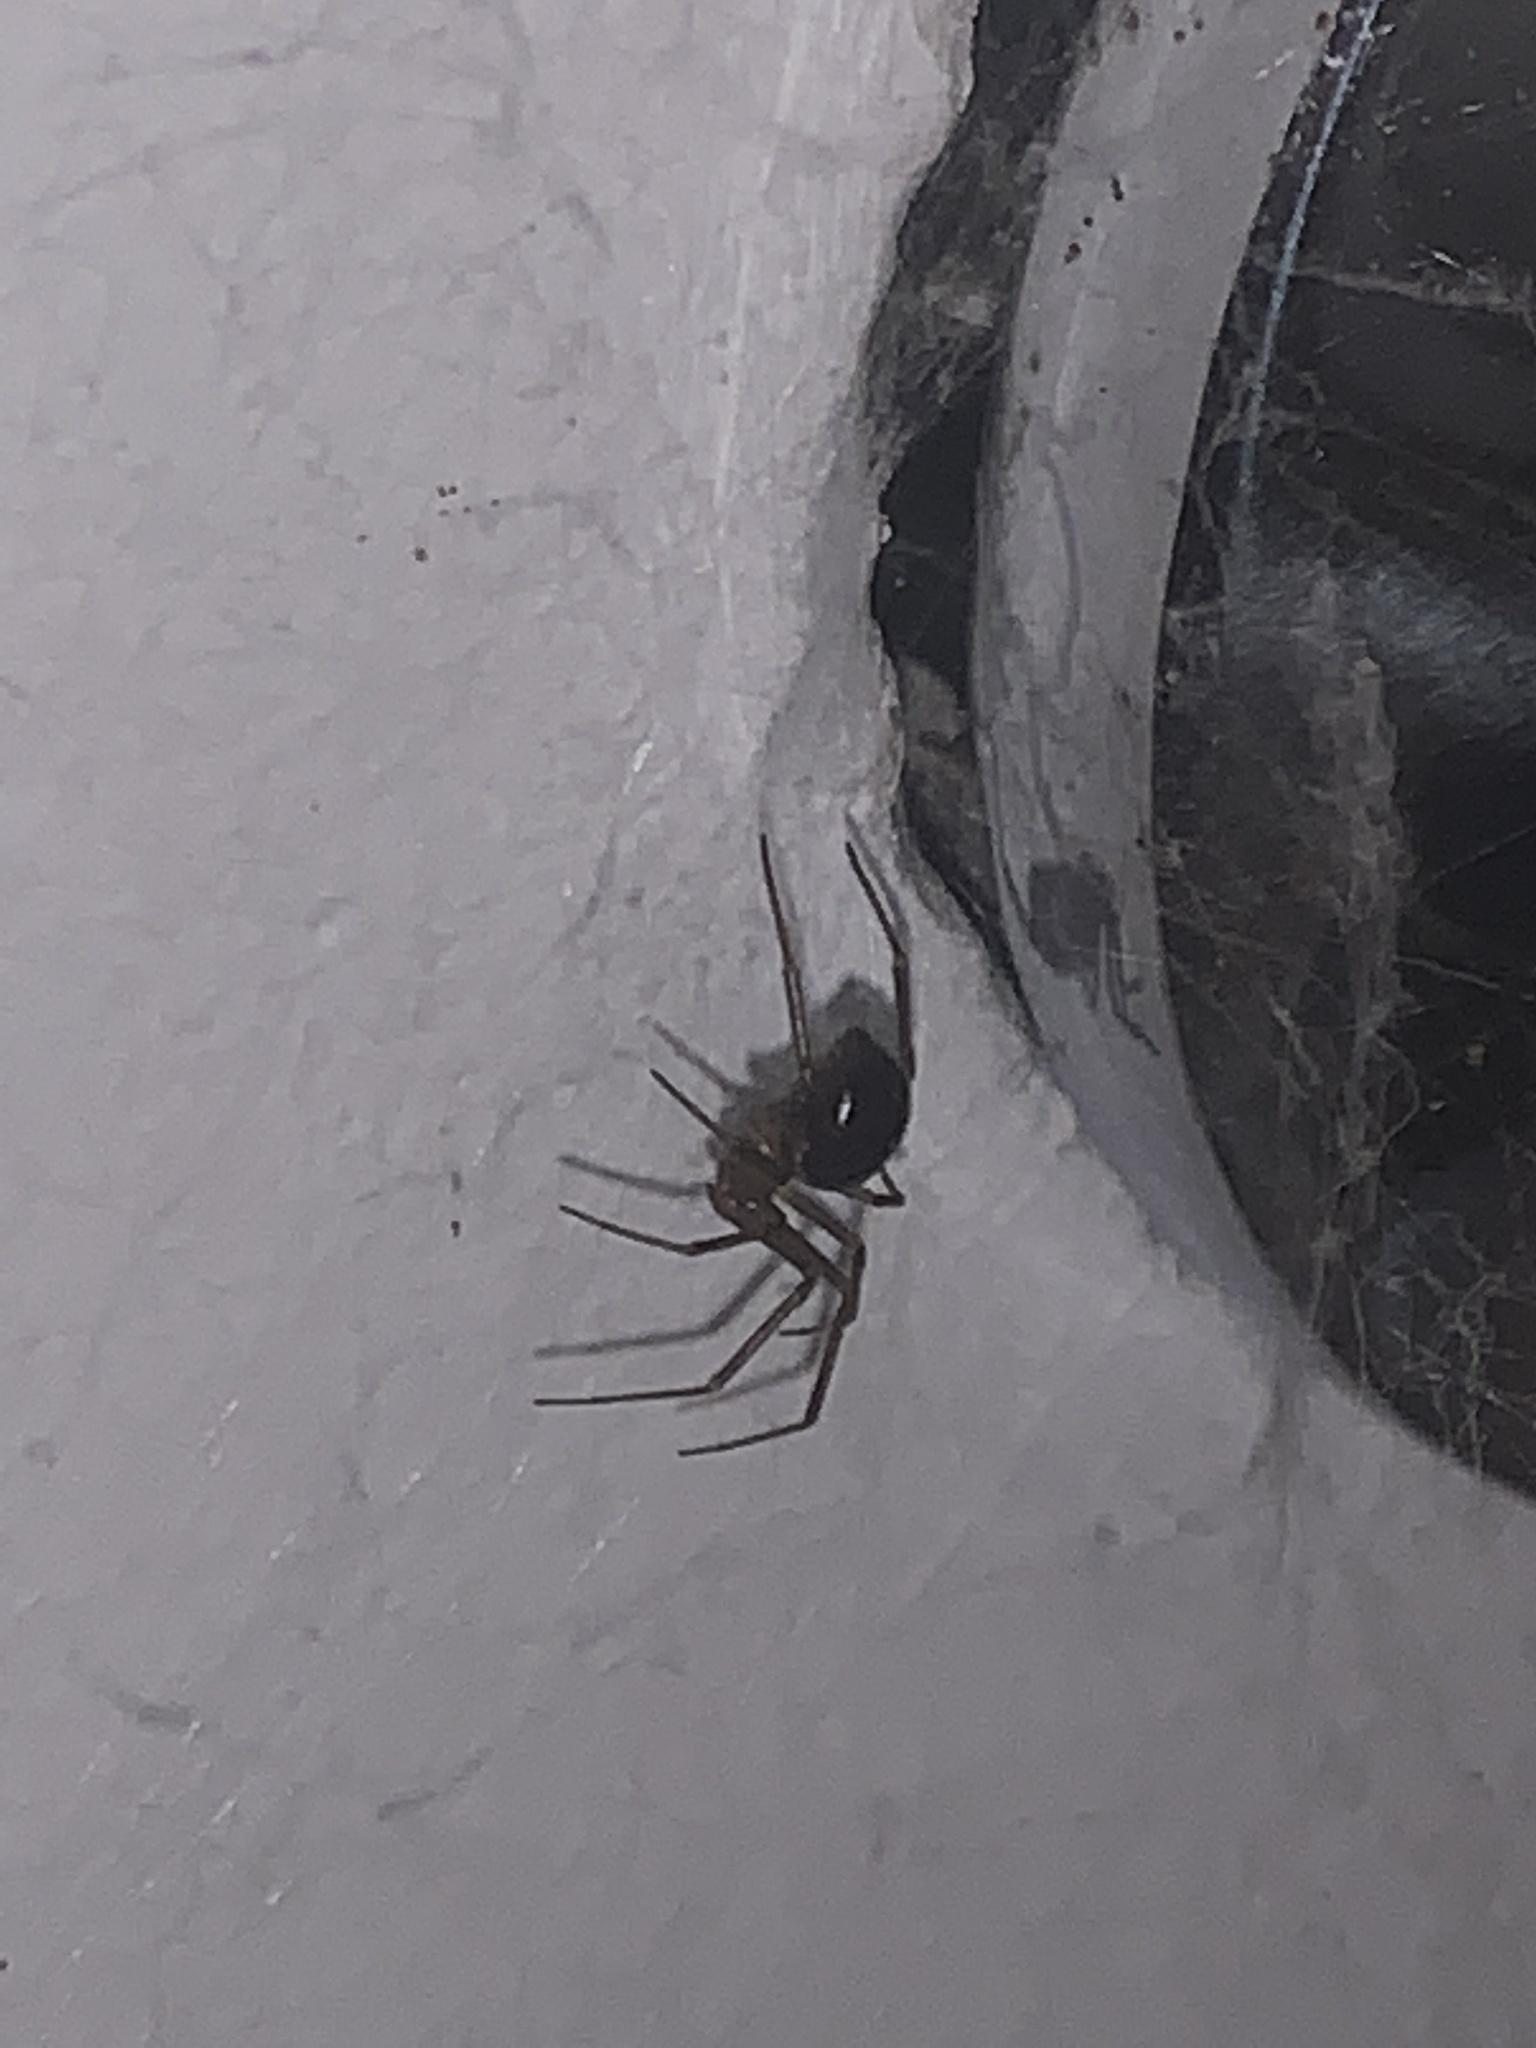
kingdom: Animalia
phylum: Arthropoda
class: Arachnida
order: Araneae
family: Theridiidae
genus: Steatoda
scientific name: Steatoda grossa
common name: False black widow
